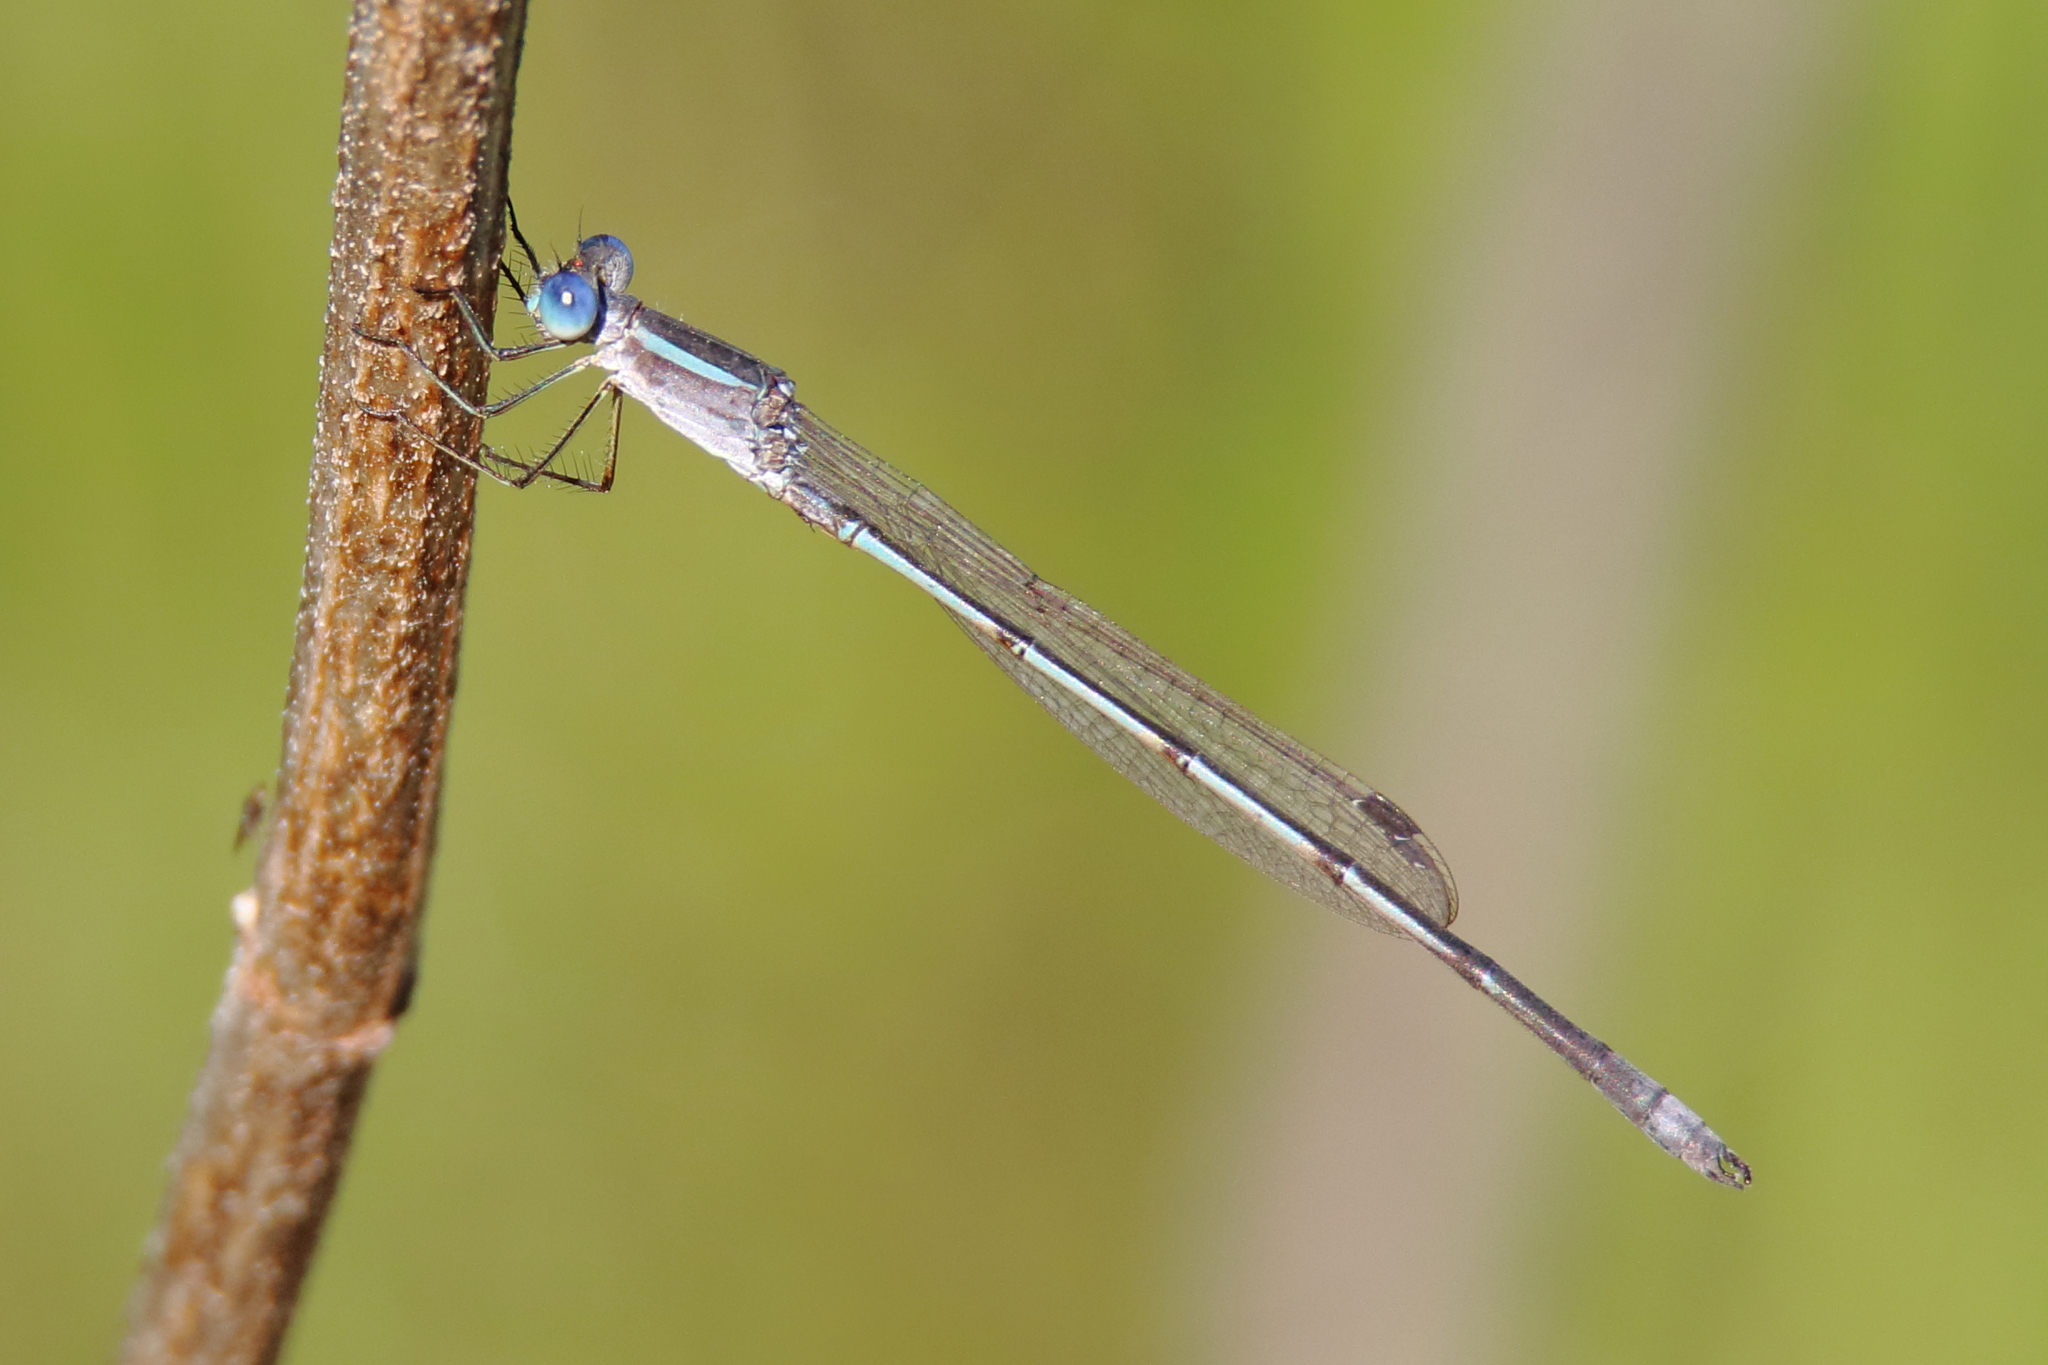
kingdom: Animalia
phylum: Arthropoda
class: Insecta
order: Odonata
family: Lestidae
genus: Lestes
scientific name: Lestes alacer
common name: Plateau spreadwing
